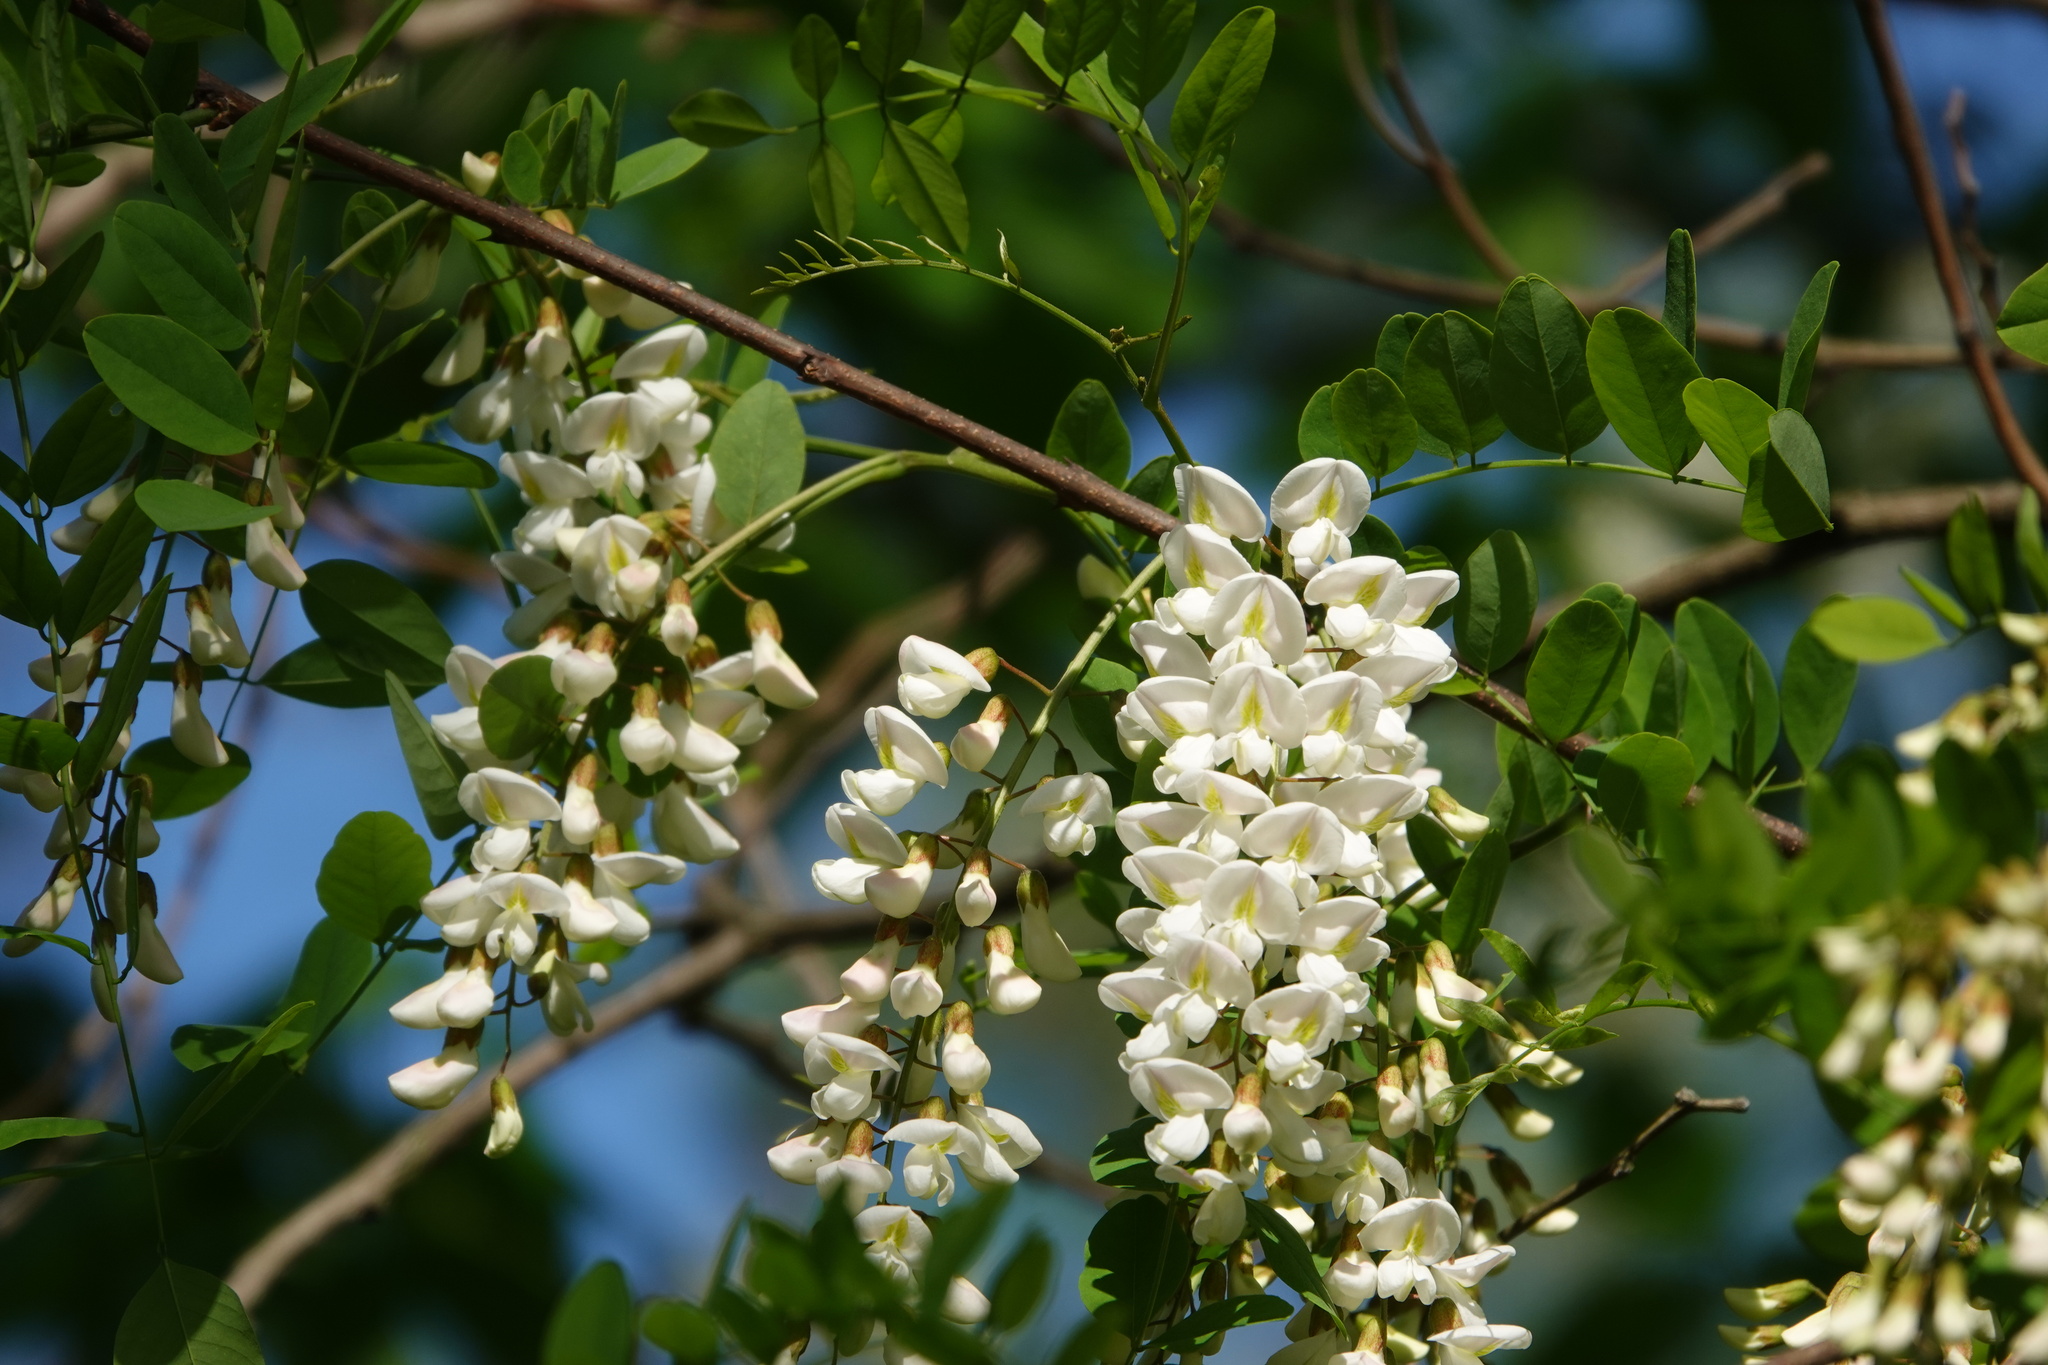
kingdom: Plantae
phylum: Tracheophyta
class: Magnoliopsida
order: Fabales
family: Fabaceae
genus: Robinia
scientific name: Robinia pseudoacacia
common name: Black locust
